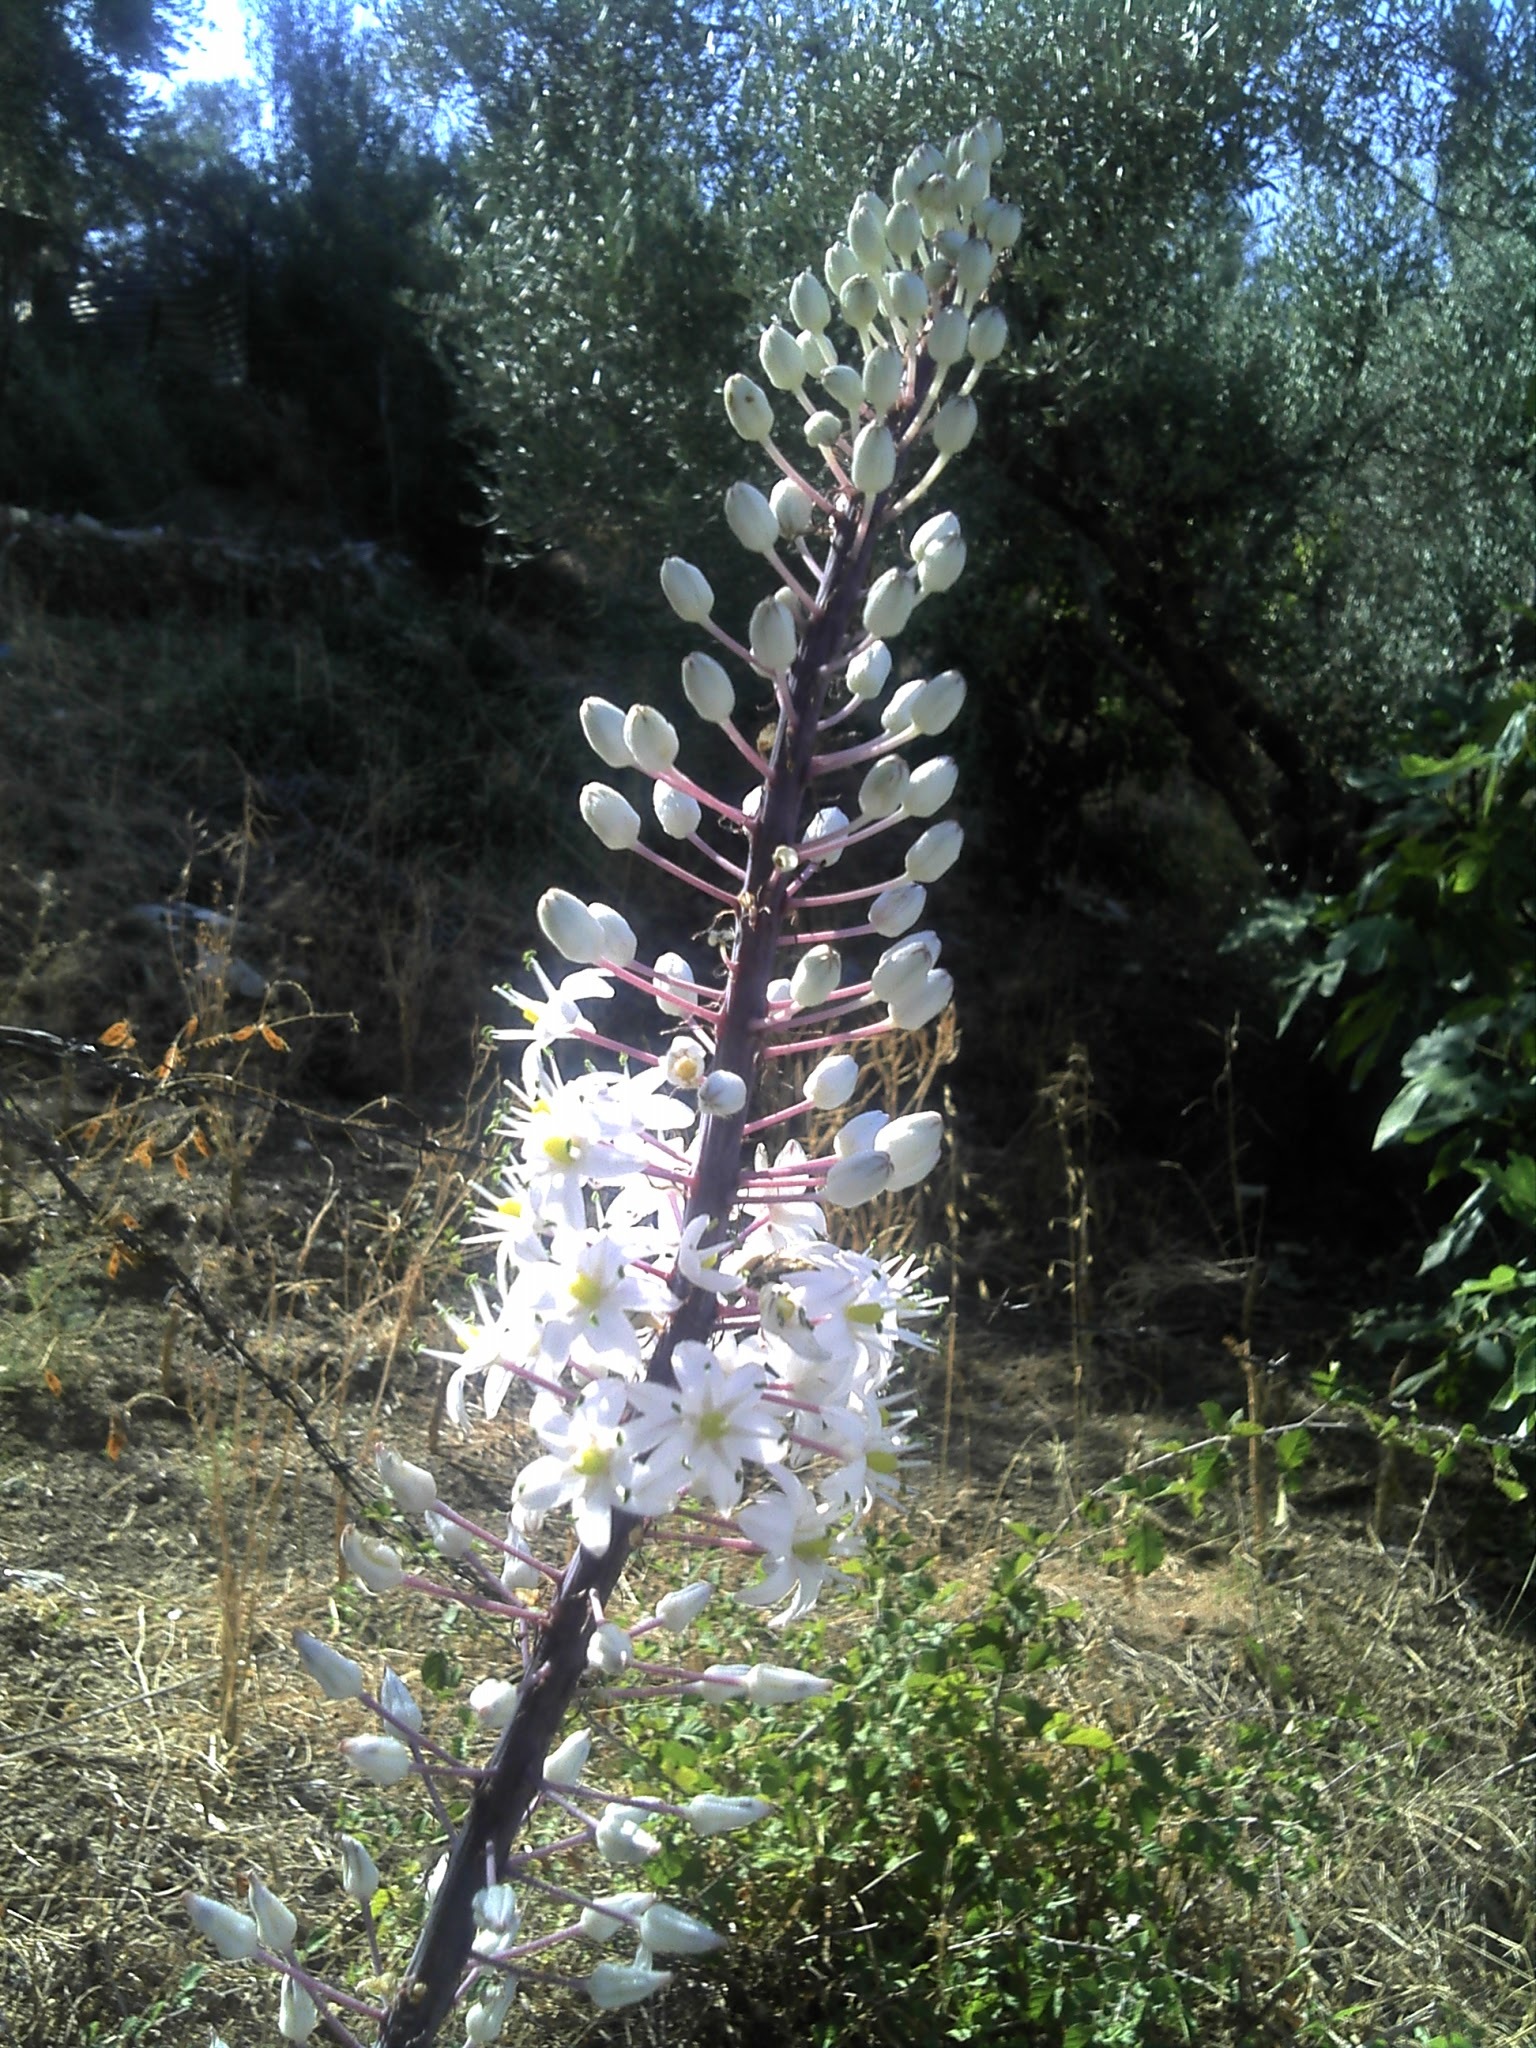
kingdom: Plantae
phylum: Tracheophyta
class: Liliopsida
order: Asparagales
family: Asparagaceae
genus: Drimia
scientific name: Drimia numidica
